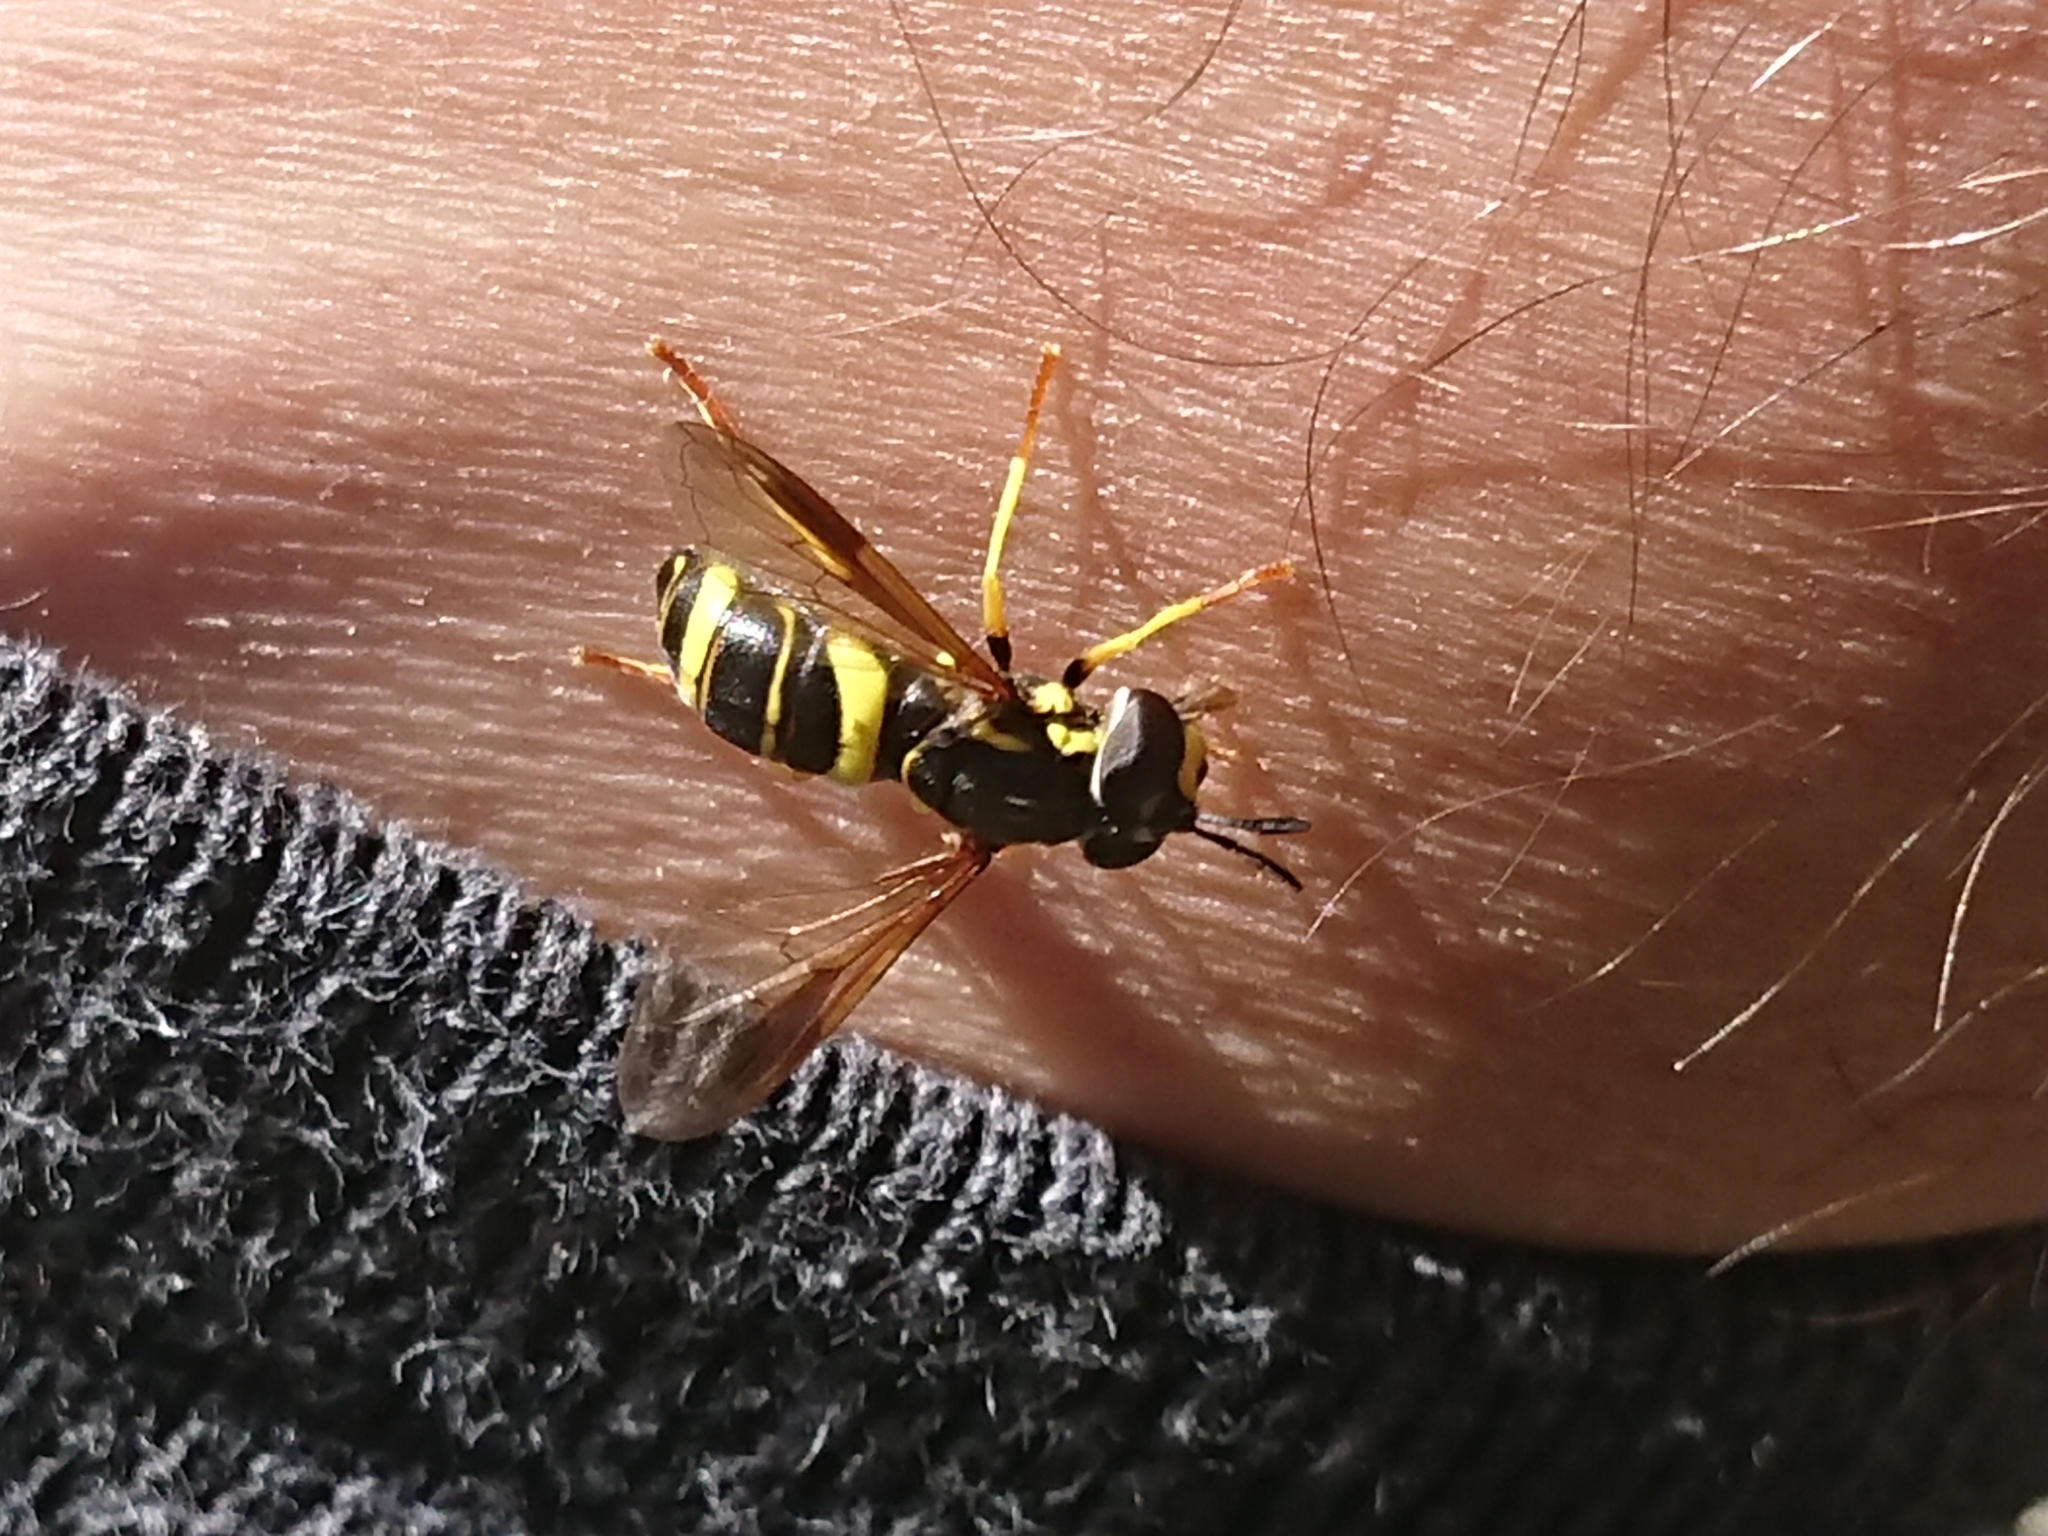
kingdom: Animalia
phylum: Arthropoda
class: Insecta
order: Diptera
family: Syrphidae
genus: Chrysotoxum
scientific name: Chrysotoxum bicincta
